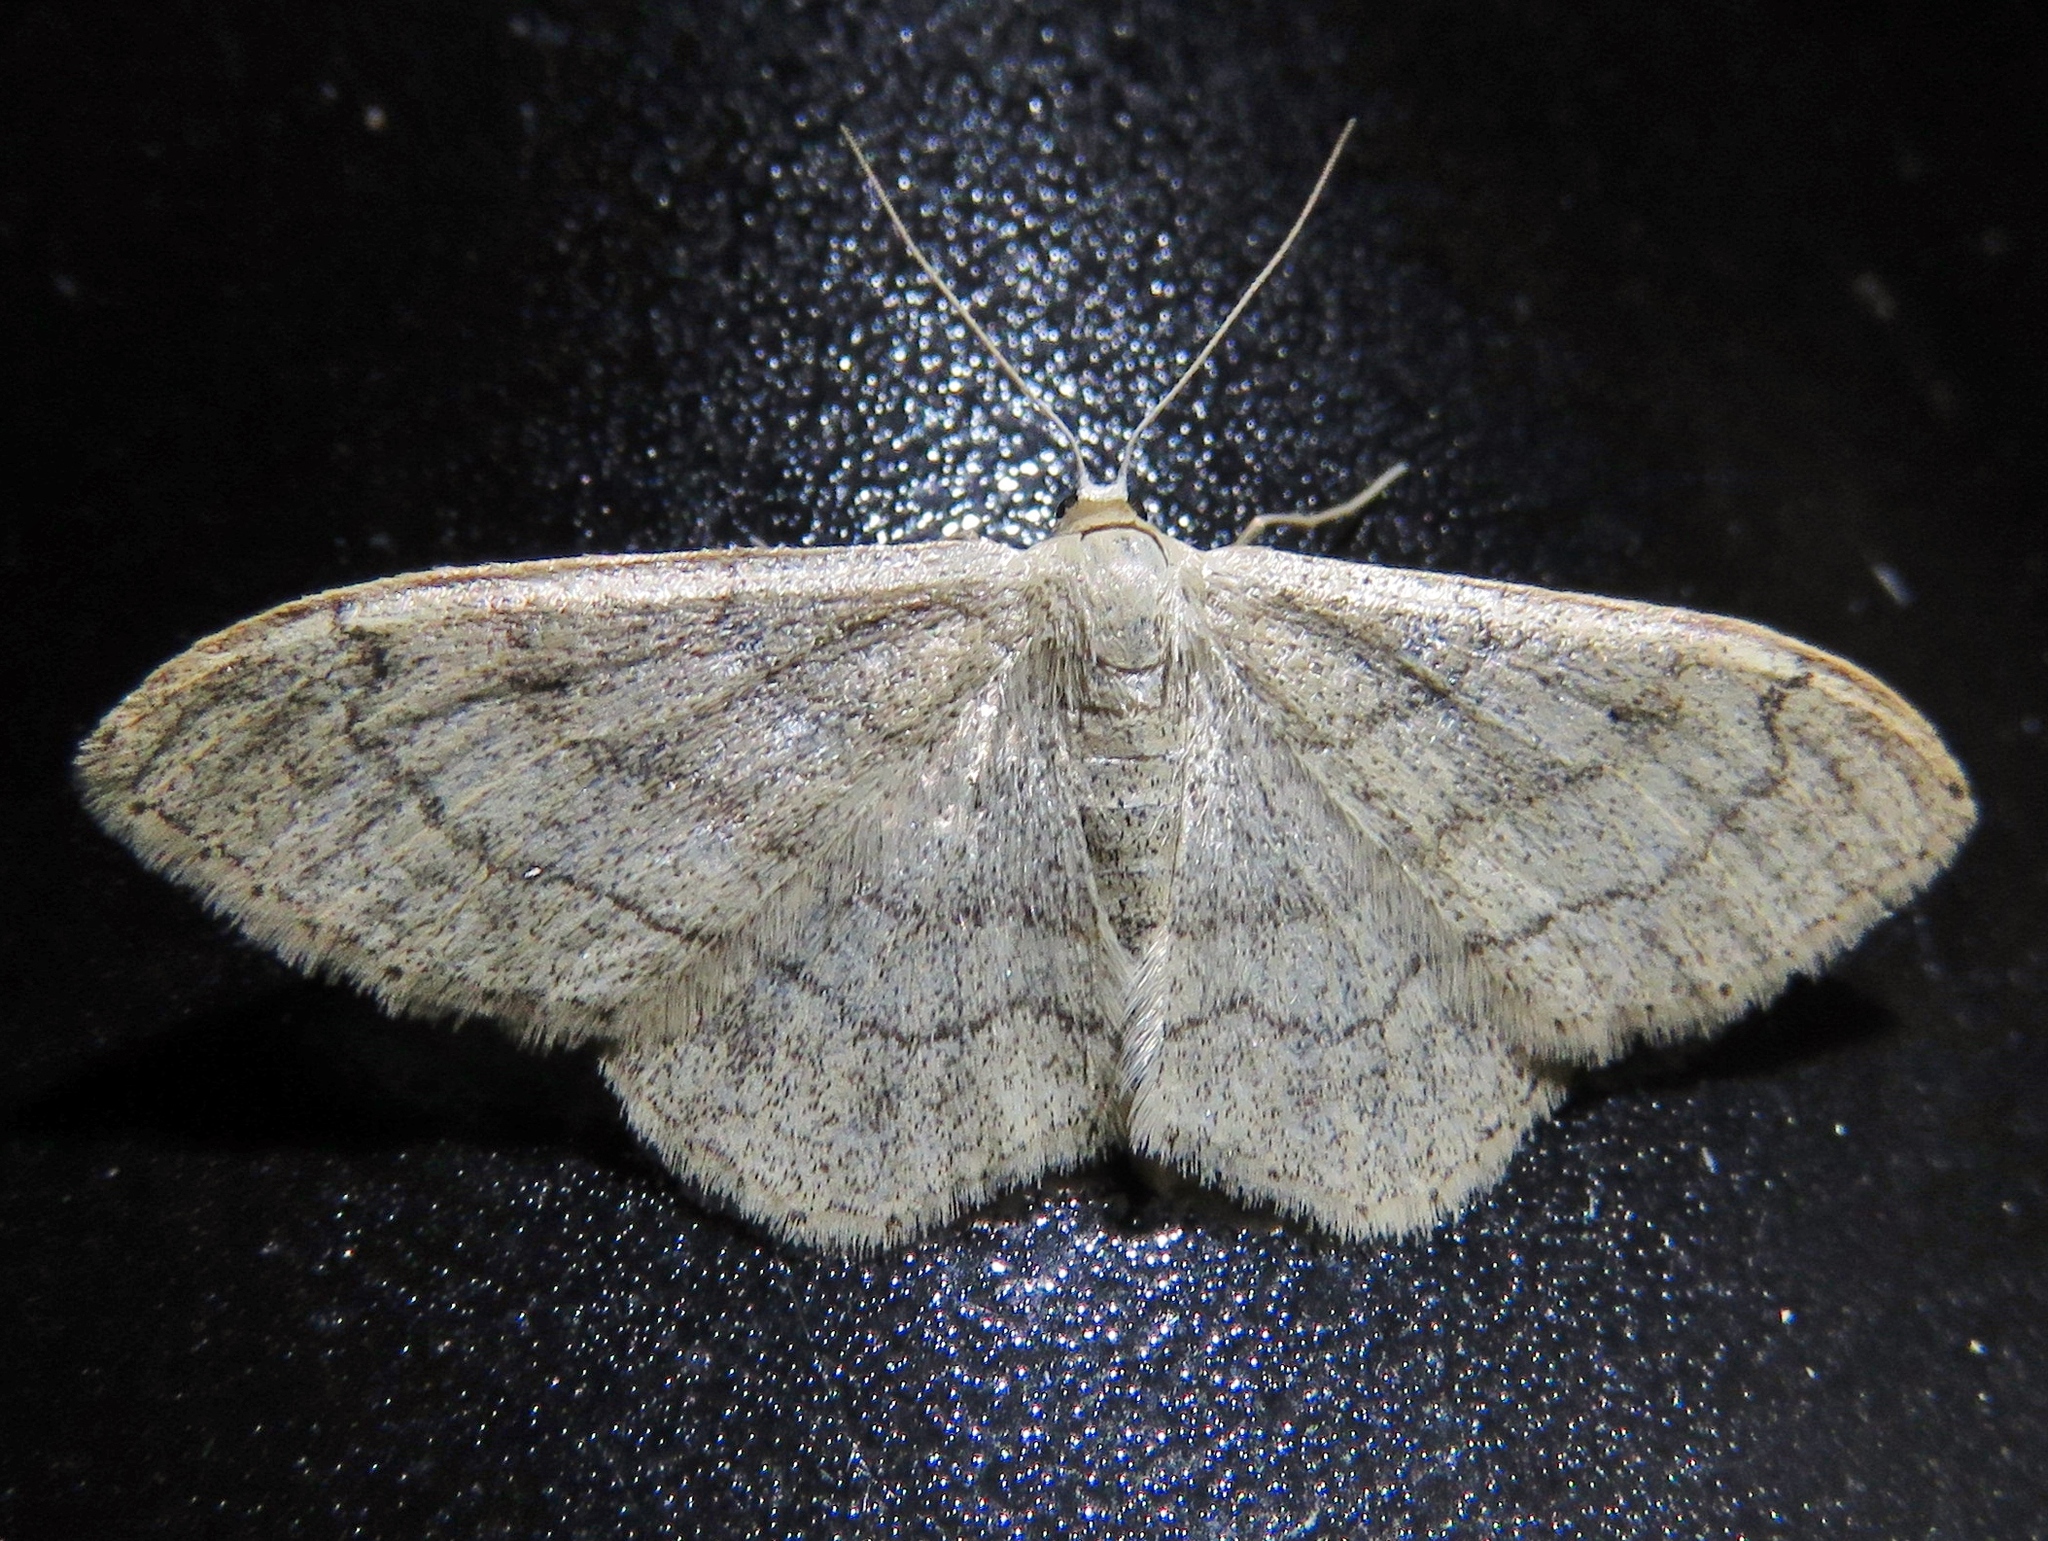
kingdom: Animalia
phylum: Arthropoda
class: Insecta
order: Lepidoptera
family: Geometridae
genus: Idaea
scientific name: Idaea aversata
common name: Riband wave
